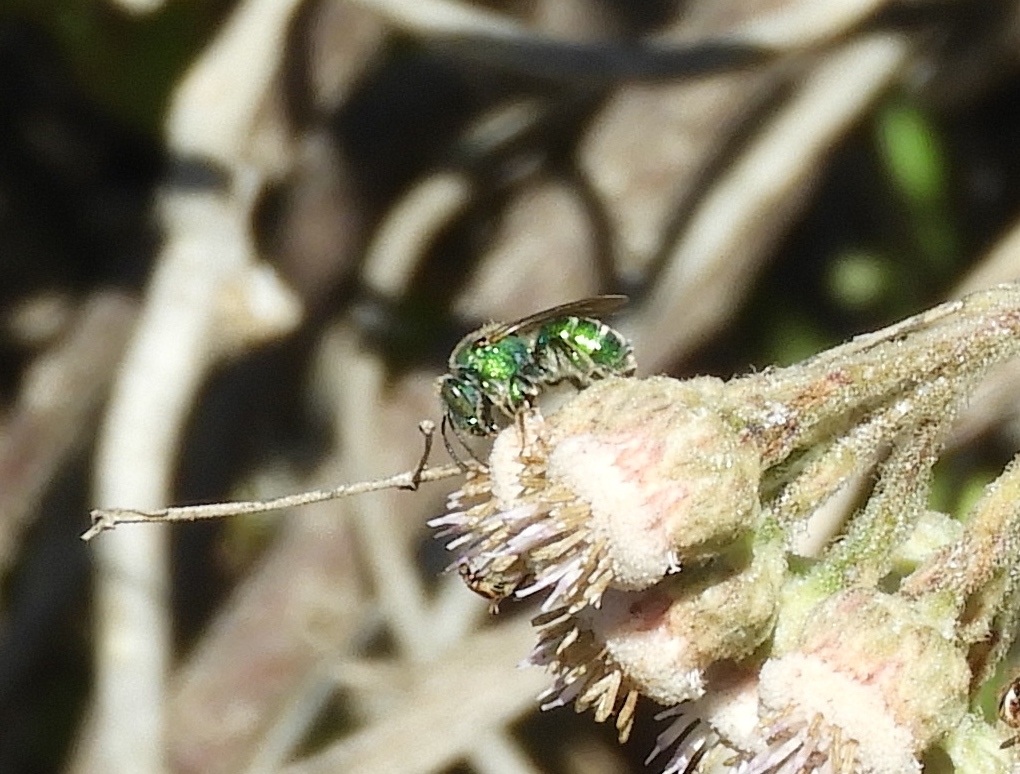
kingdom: Animalia
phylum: Arthropoda
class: Insecta
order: Hymenoptera
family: Halictidae
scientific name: Halictidae
